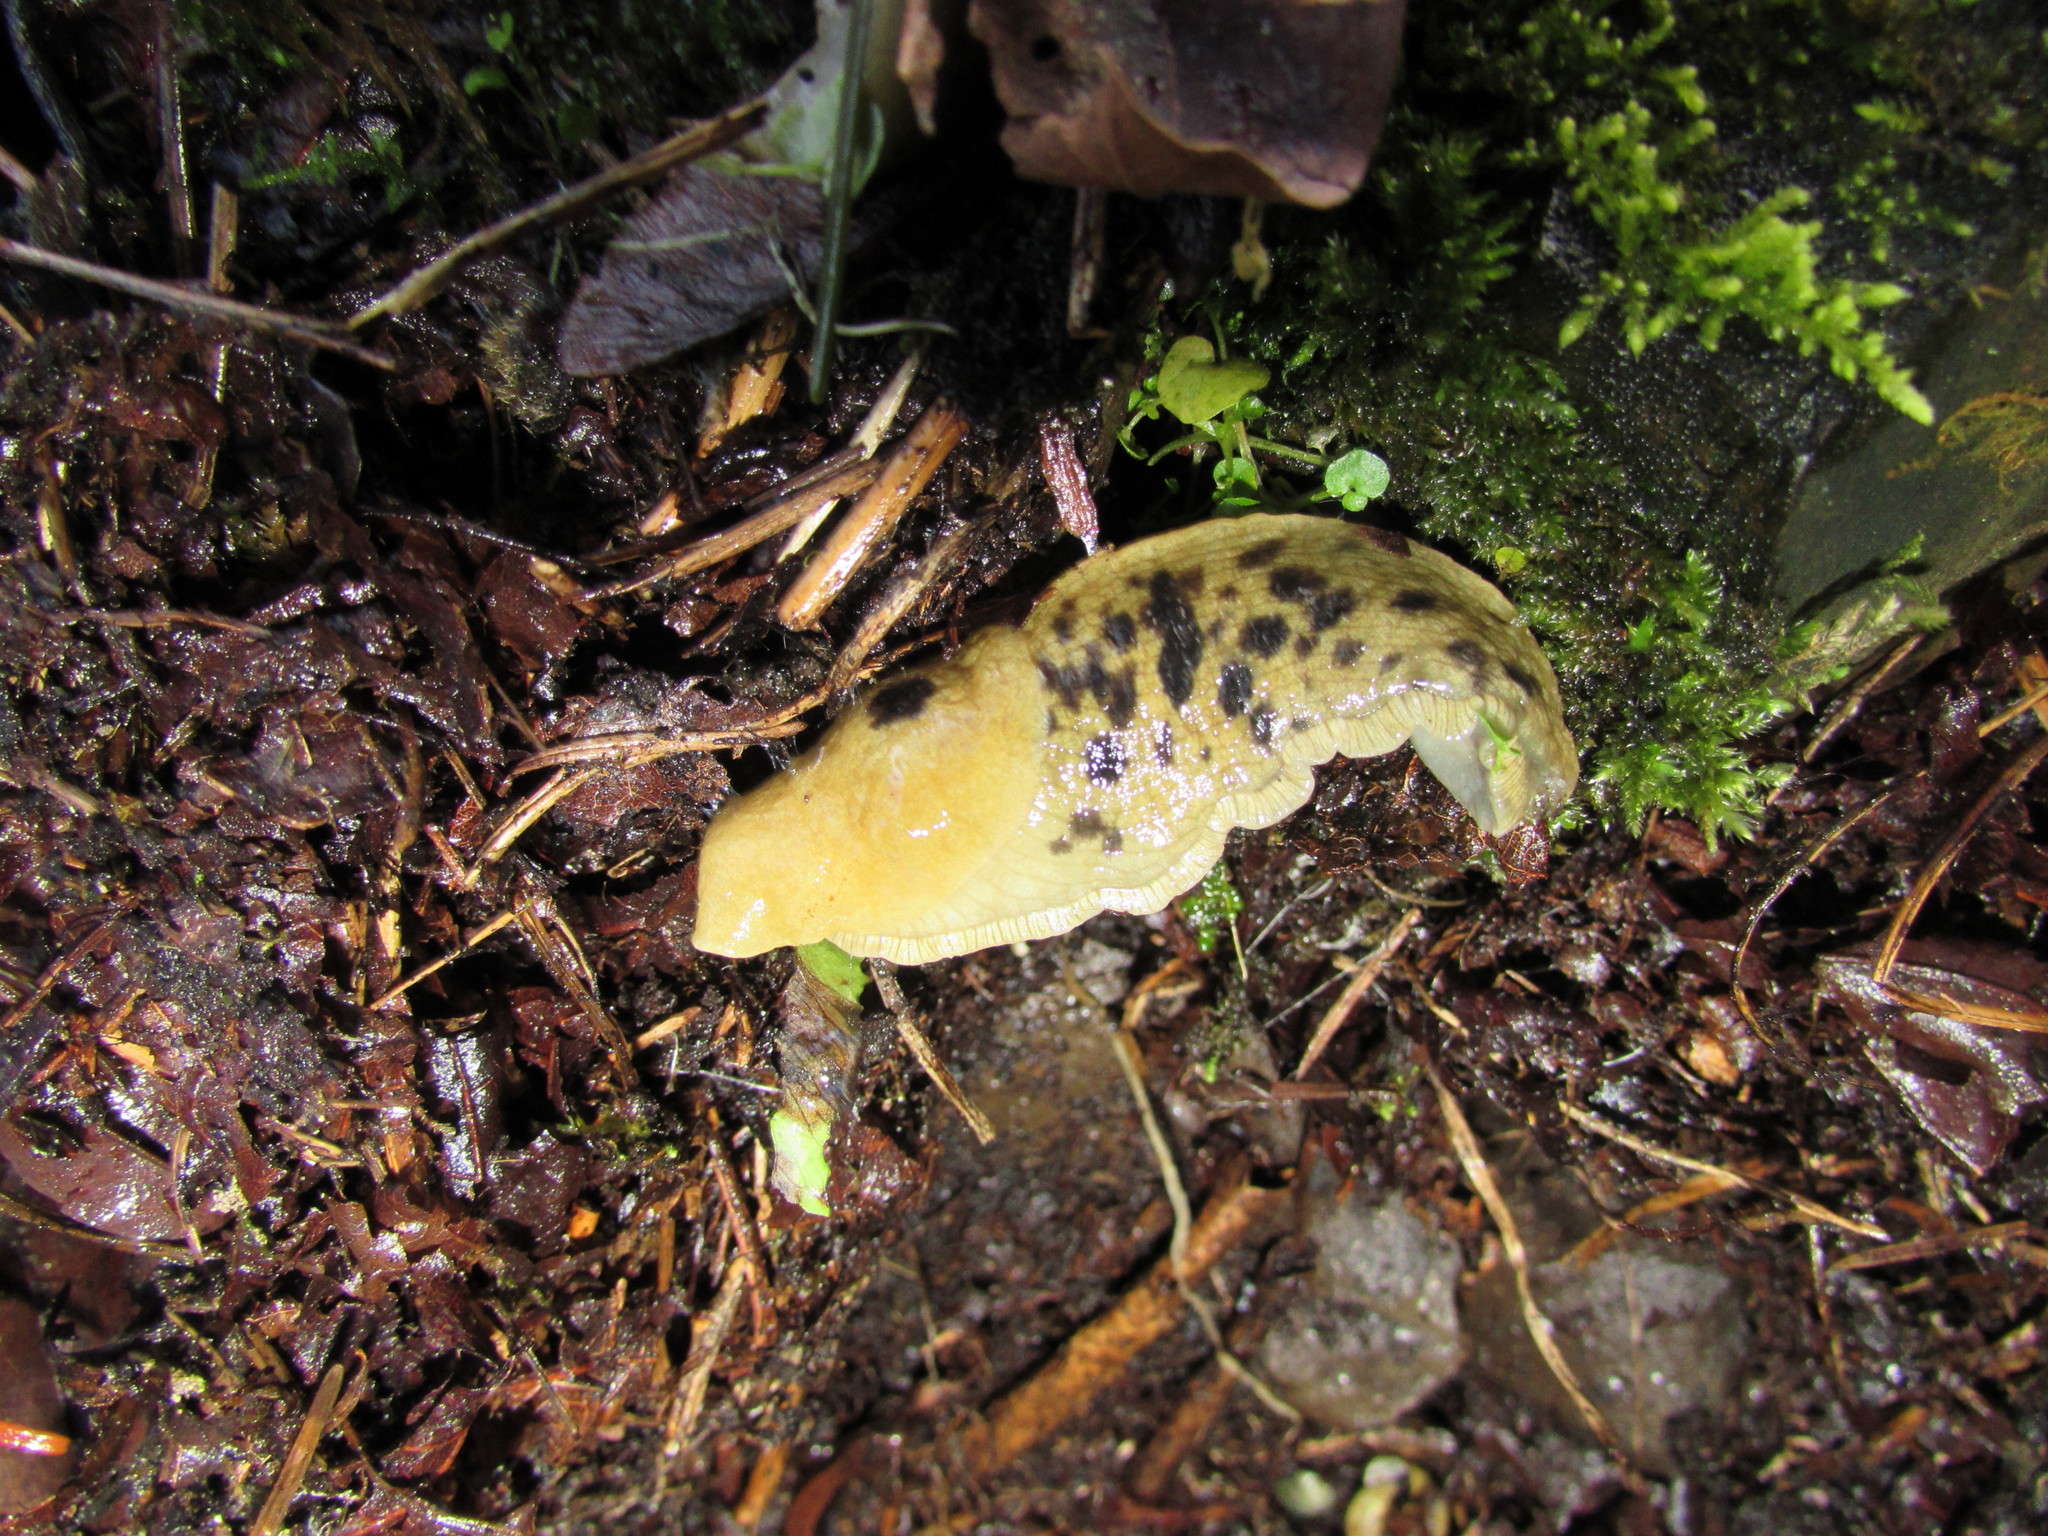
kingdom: Animalia
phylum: Mollusca
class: Gastropoda
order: Stylommatophora
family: Ariolimacidae
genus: Ariolimax
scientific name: Ariolimax columbianus
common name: Pacific banana slug
